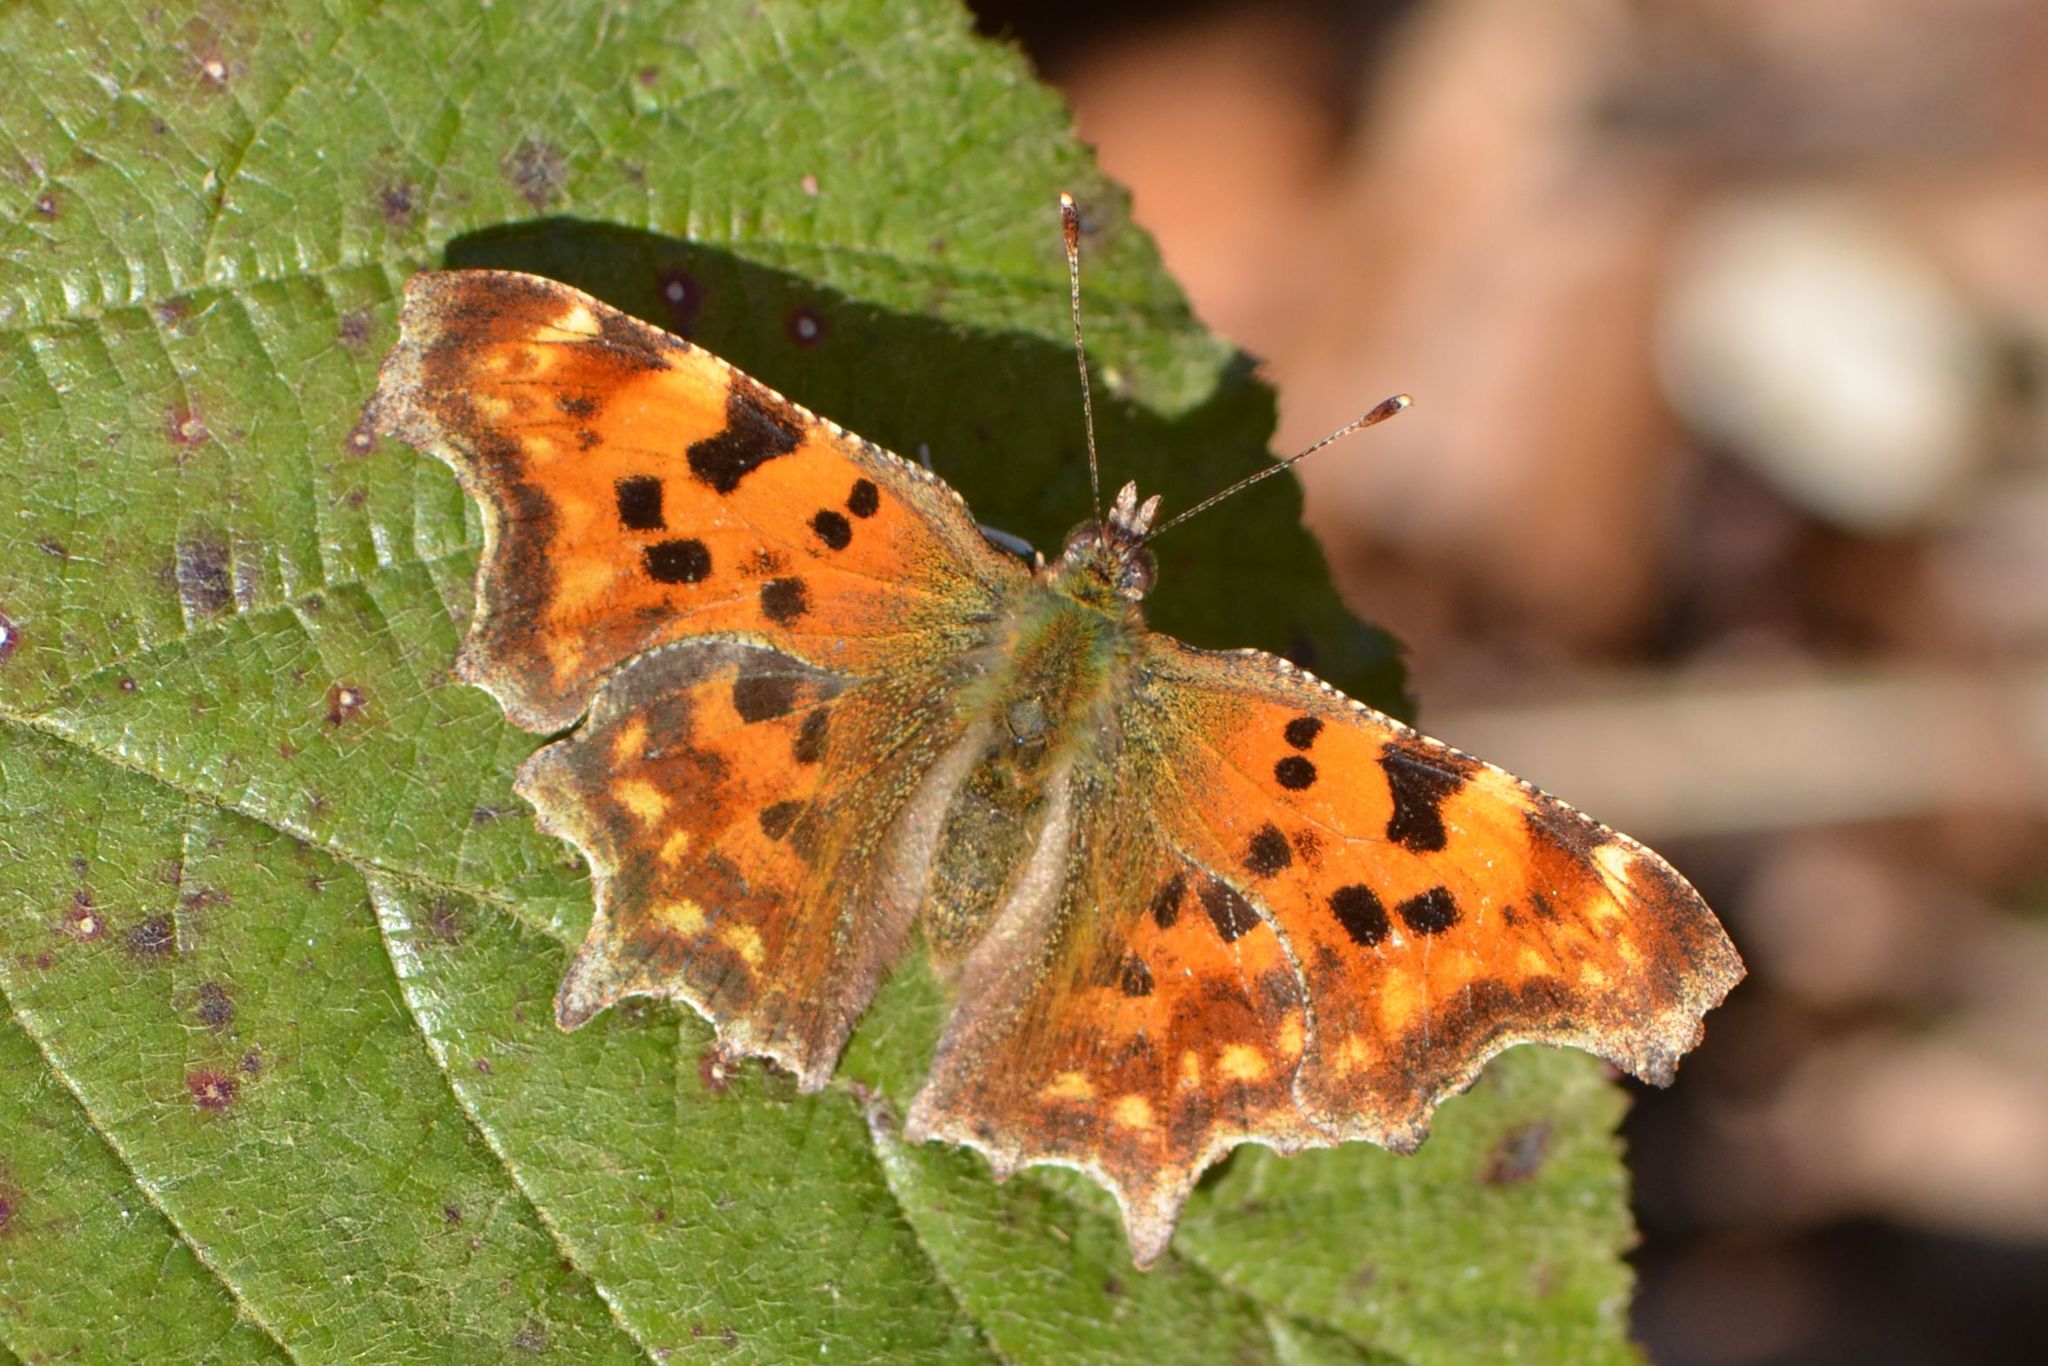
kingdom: Animalia
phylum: Arthropoda
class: Insecta
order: Lepidoptera
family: Nymphalidae
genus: Polygonia
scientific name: Polygonia c-album
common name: Comma
